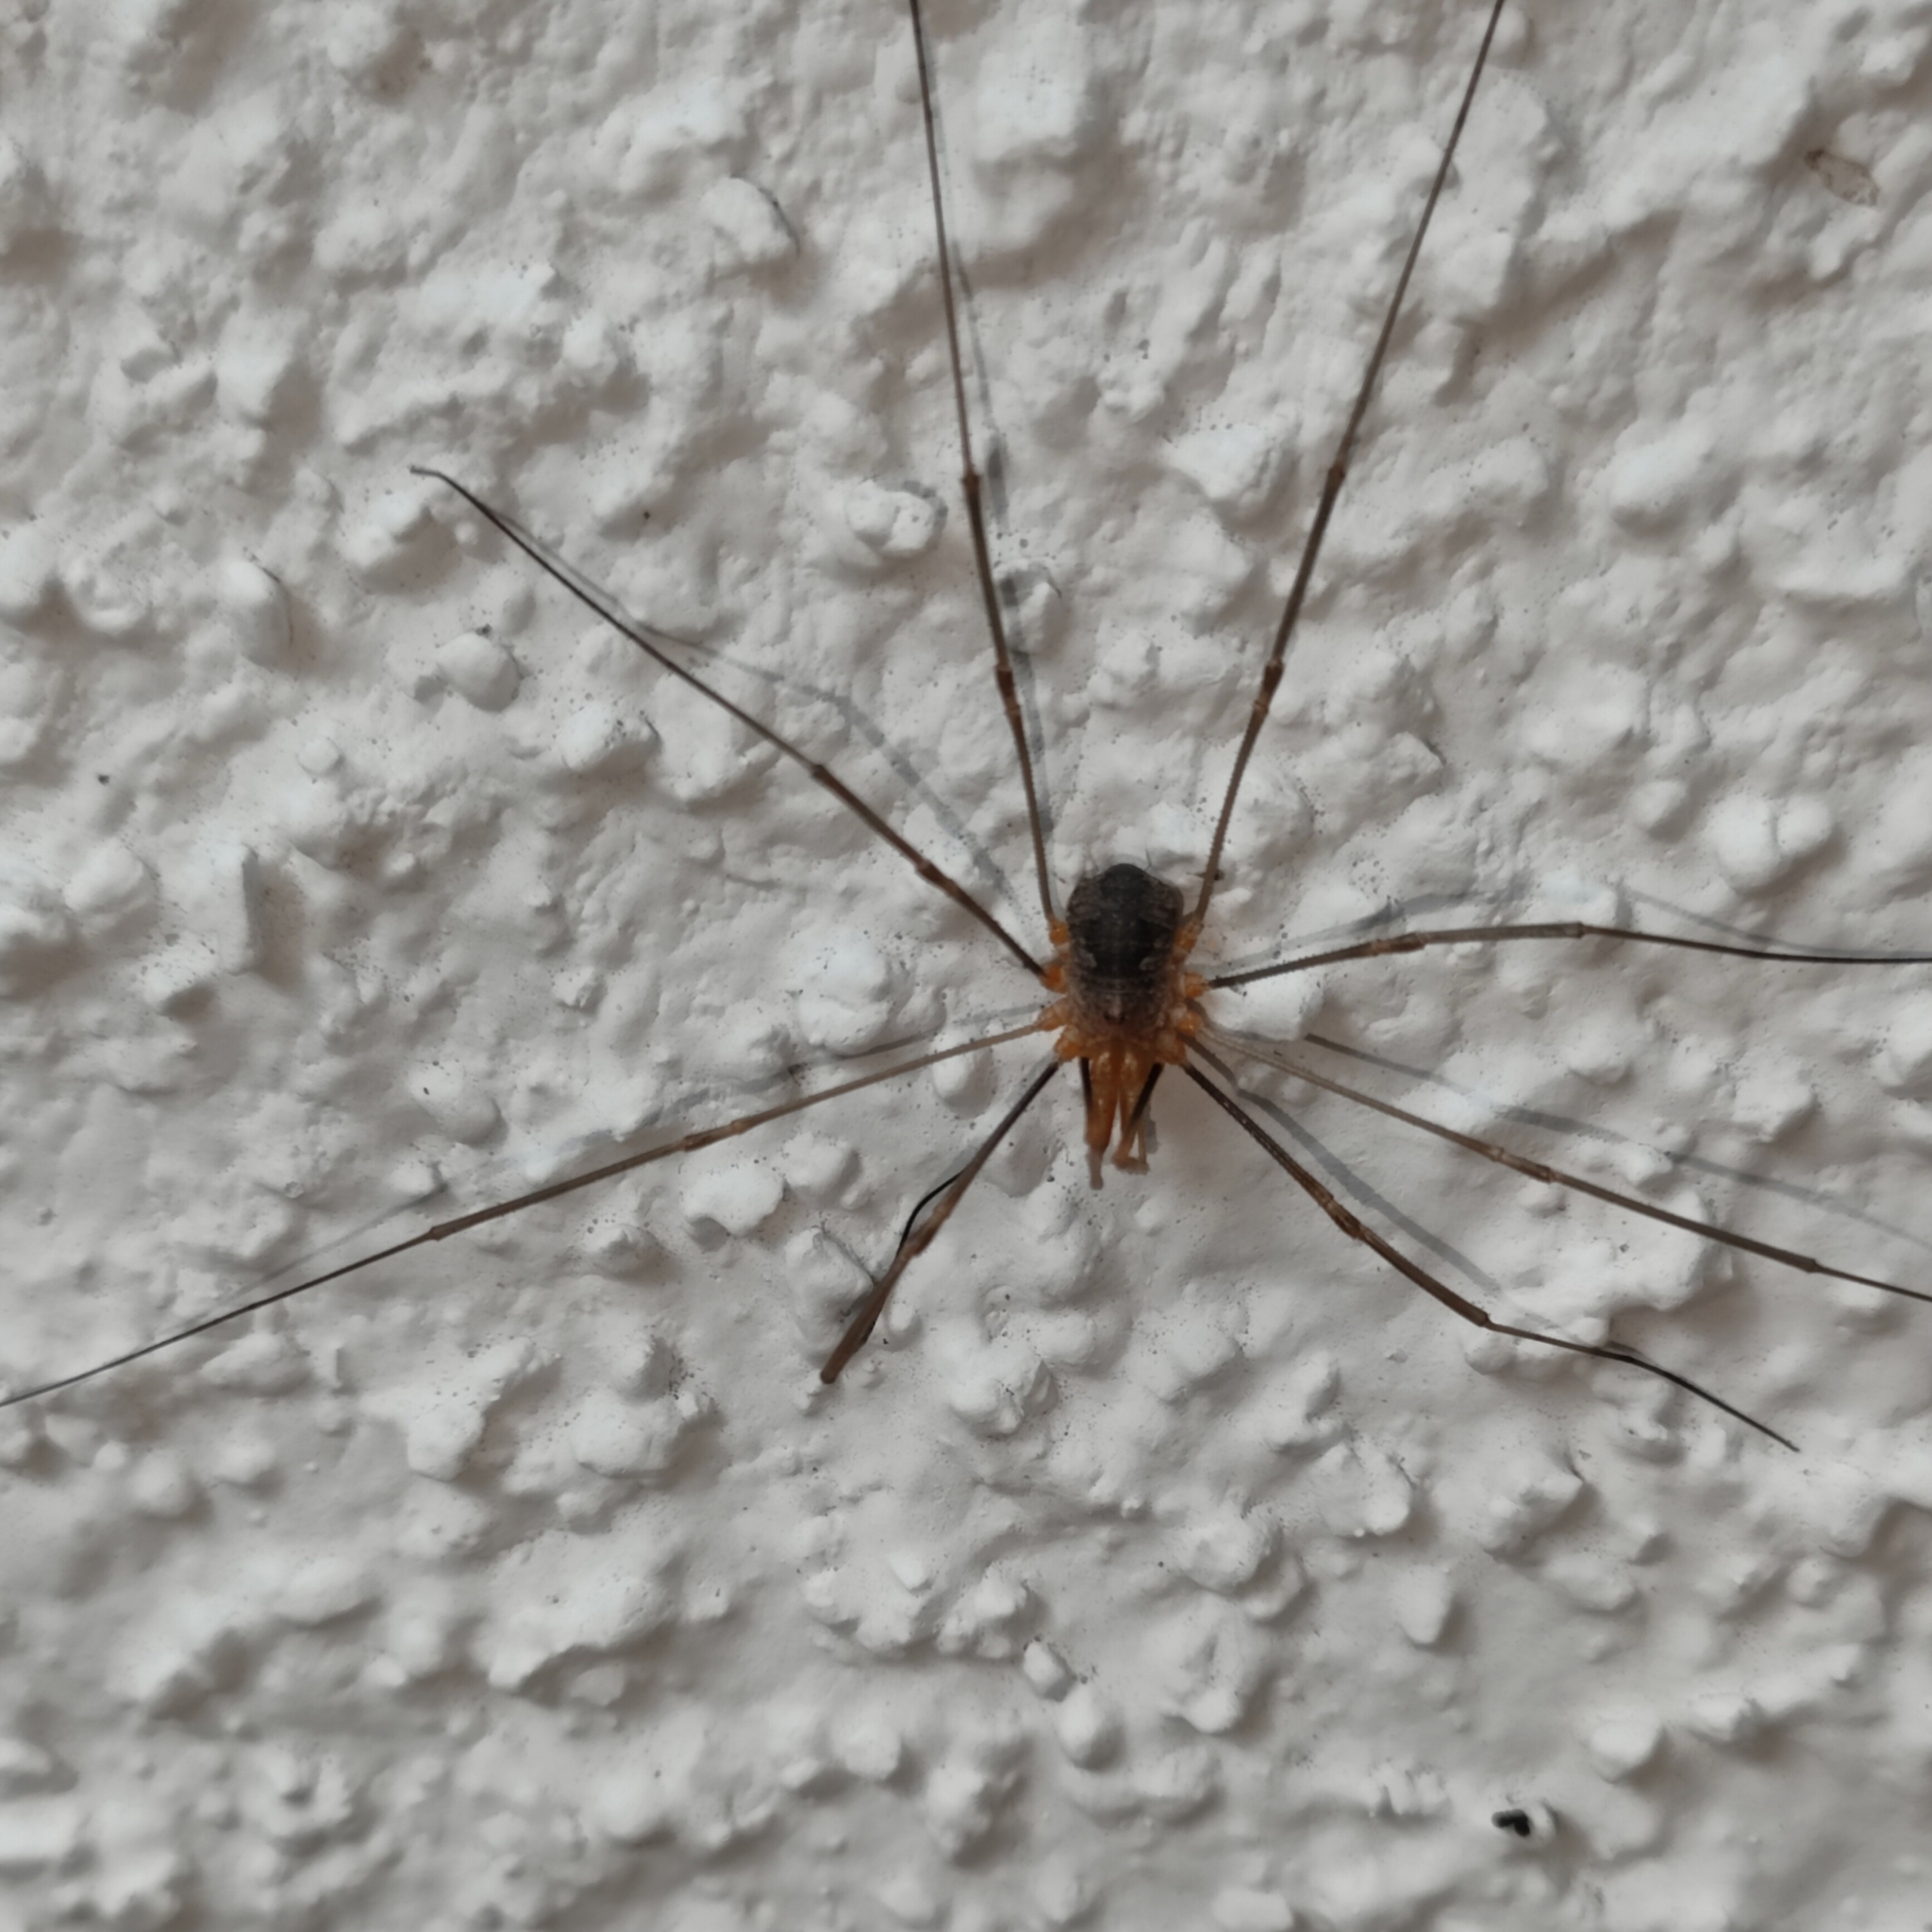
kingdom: Animalia
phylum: Arthropoda
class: Arachnida
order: Opiliones
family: Phalangiidae
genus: Phalangium
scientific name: Phalangium opilio
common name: Daddy longleg
